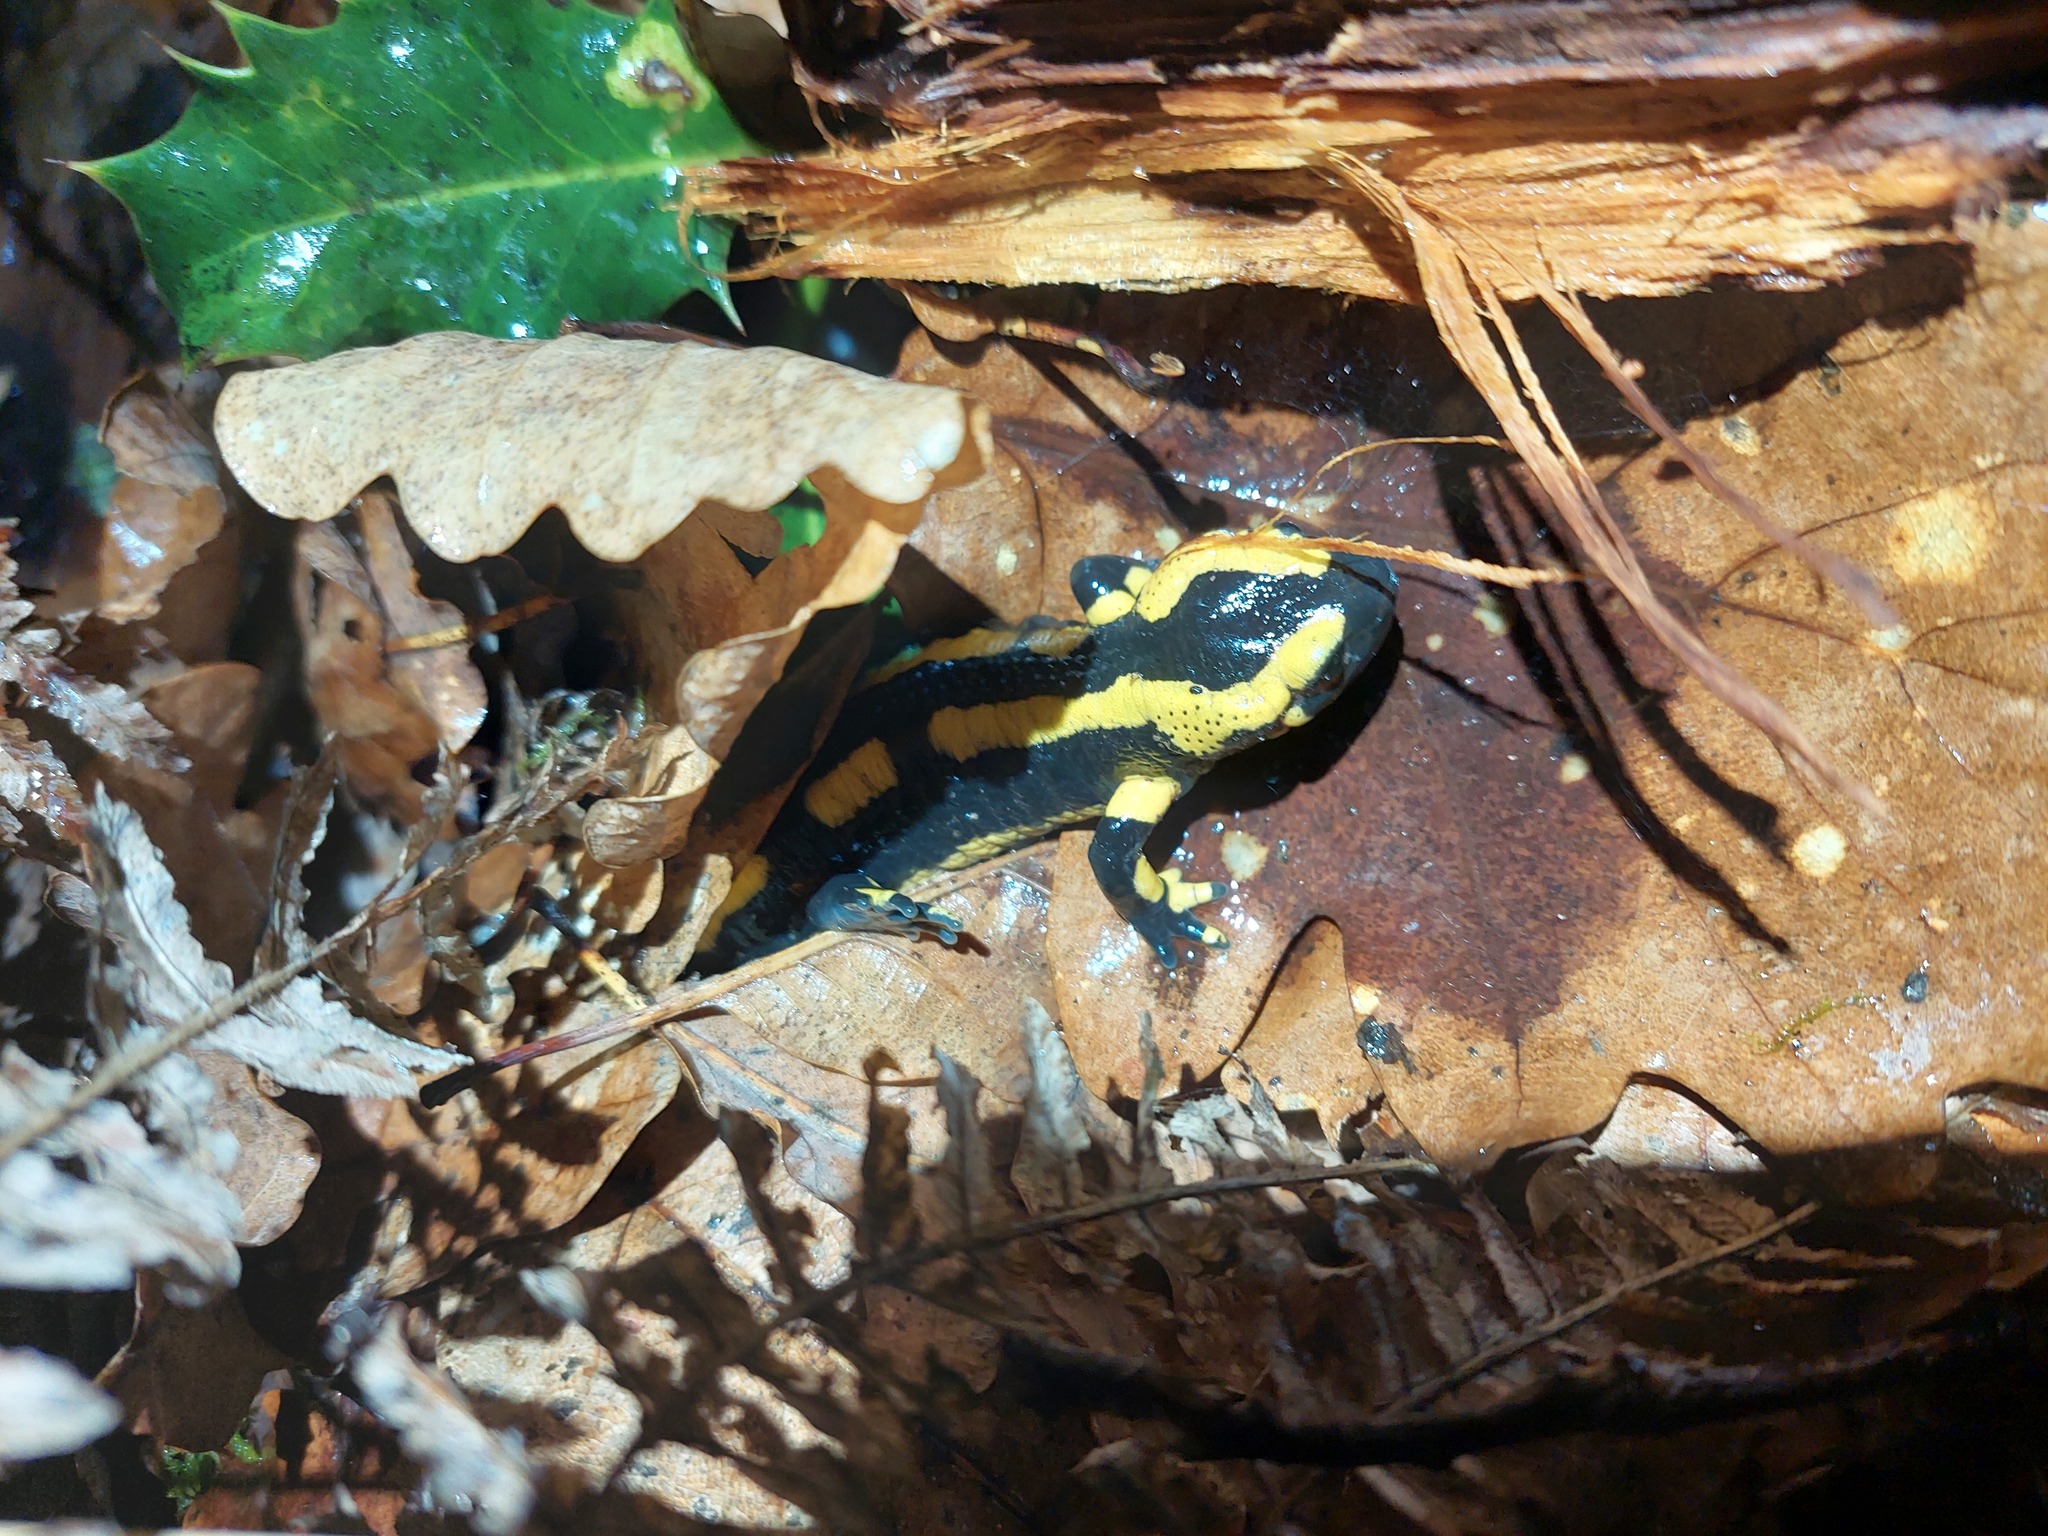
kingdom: Animalia
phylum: Chordata
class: Amphibia
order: Caudata
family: Salamandridae
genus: Salamandra
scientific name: Salamandra salamandra
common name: Fire salamander
